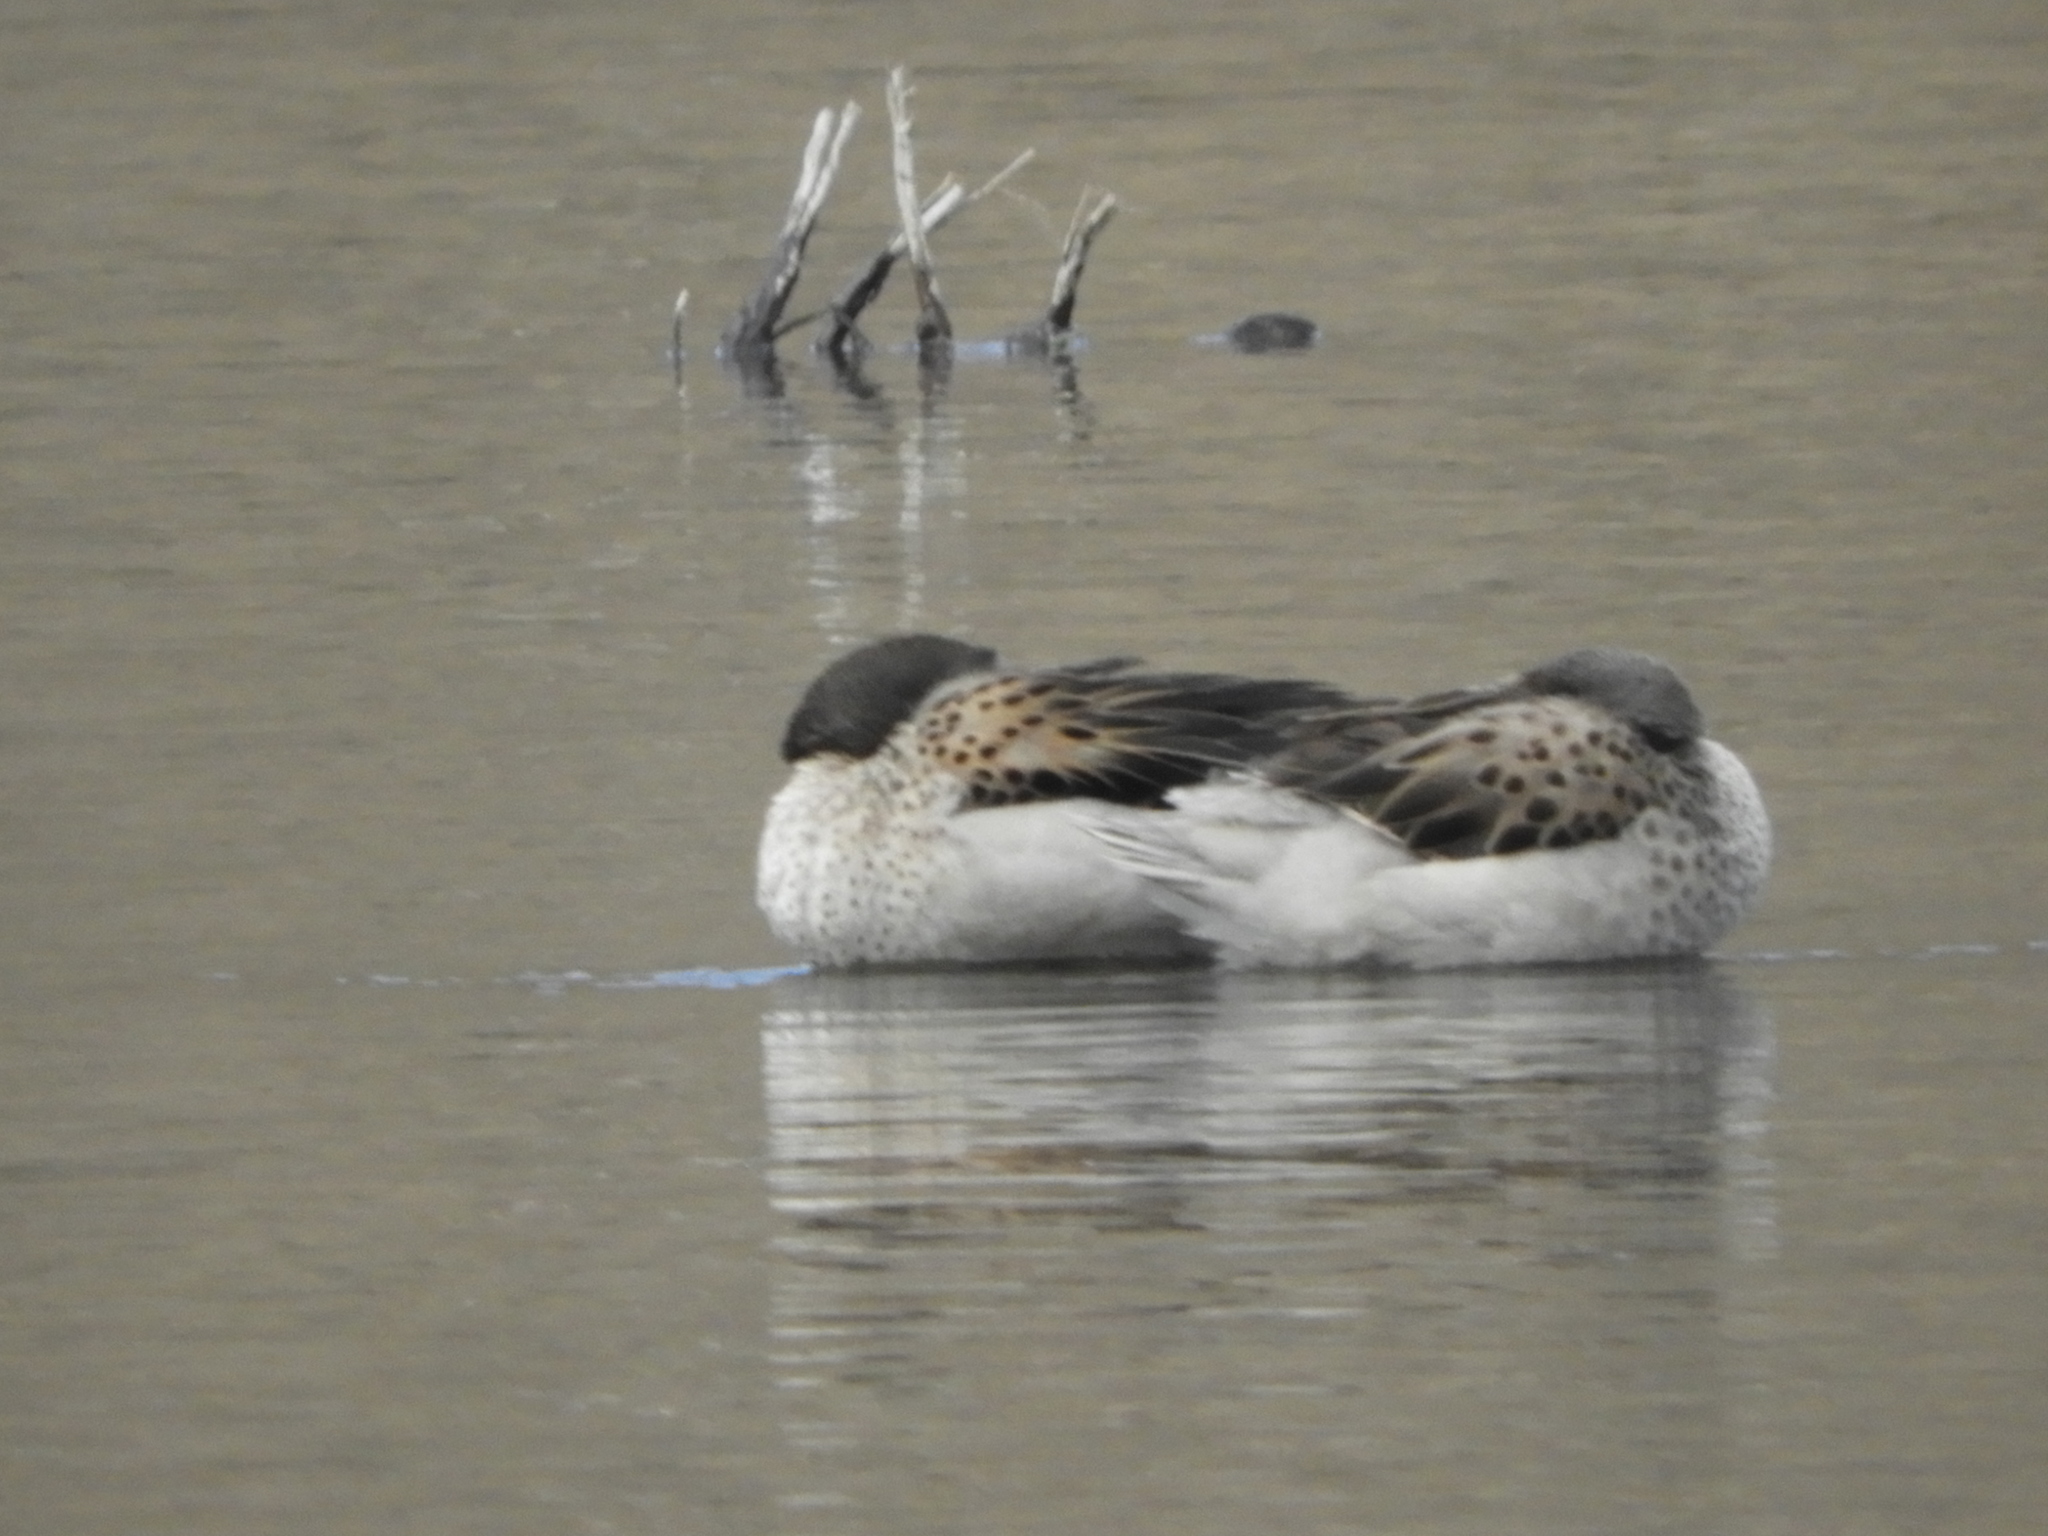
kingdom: Animalia
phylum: Chordata
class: Aves
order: Anseriformes
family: Anatidae
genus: Anas
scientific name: Anas flavirostris
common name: Yellow-billed teal
